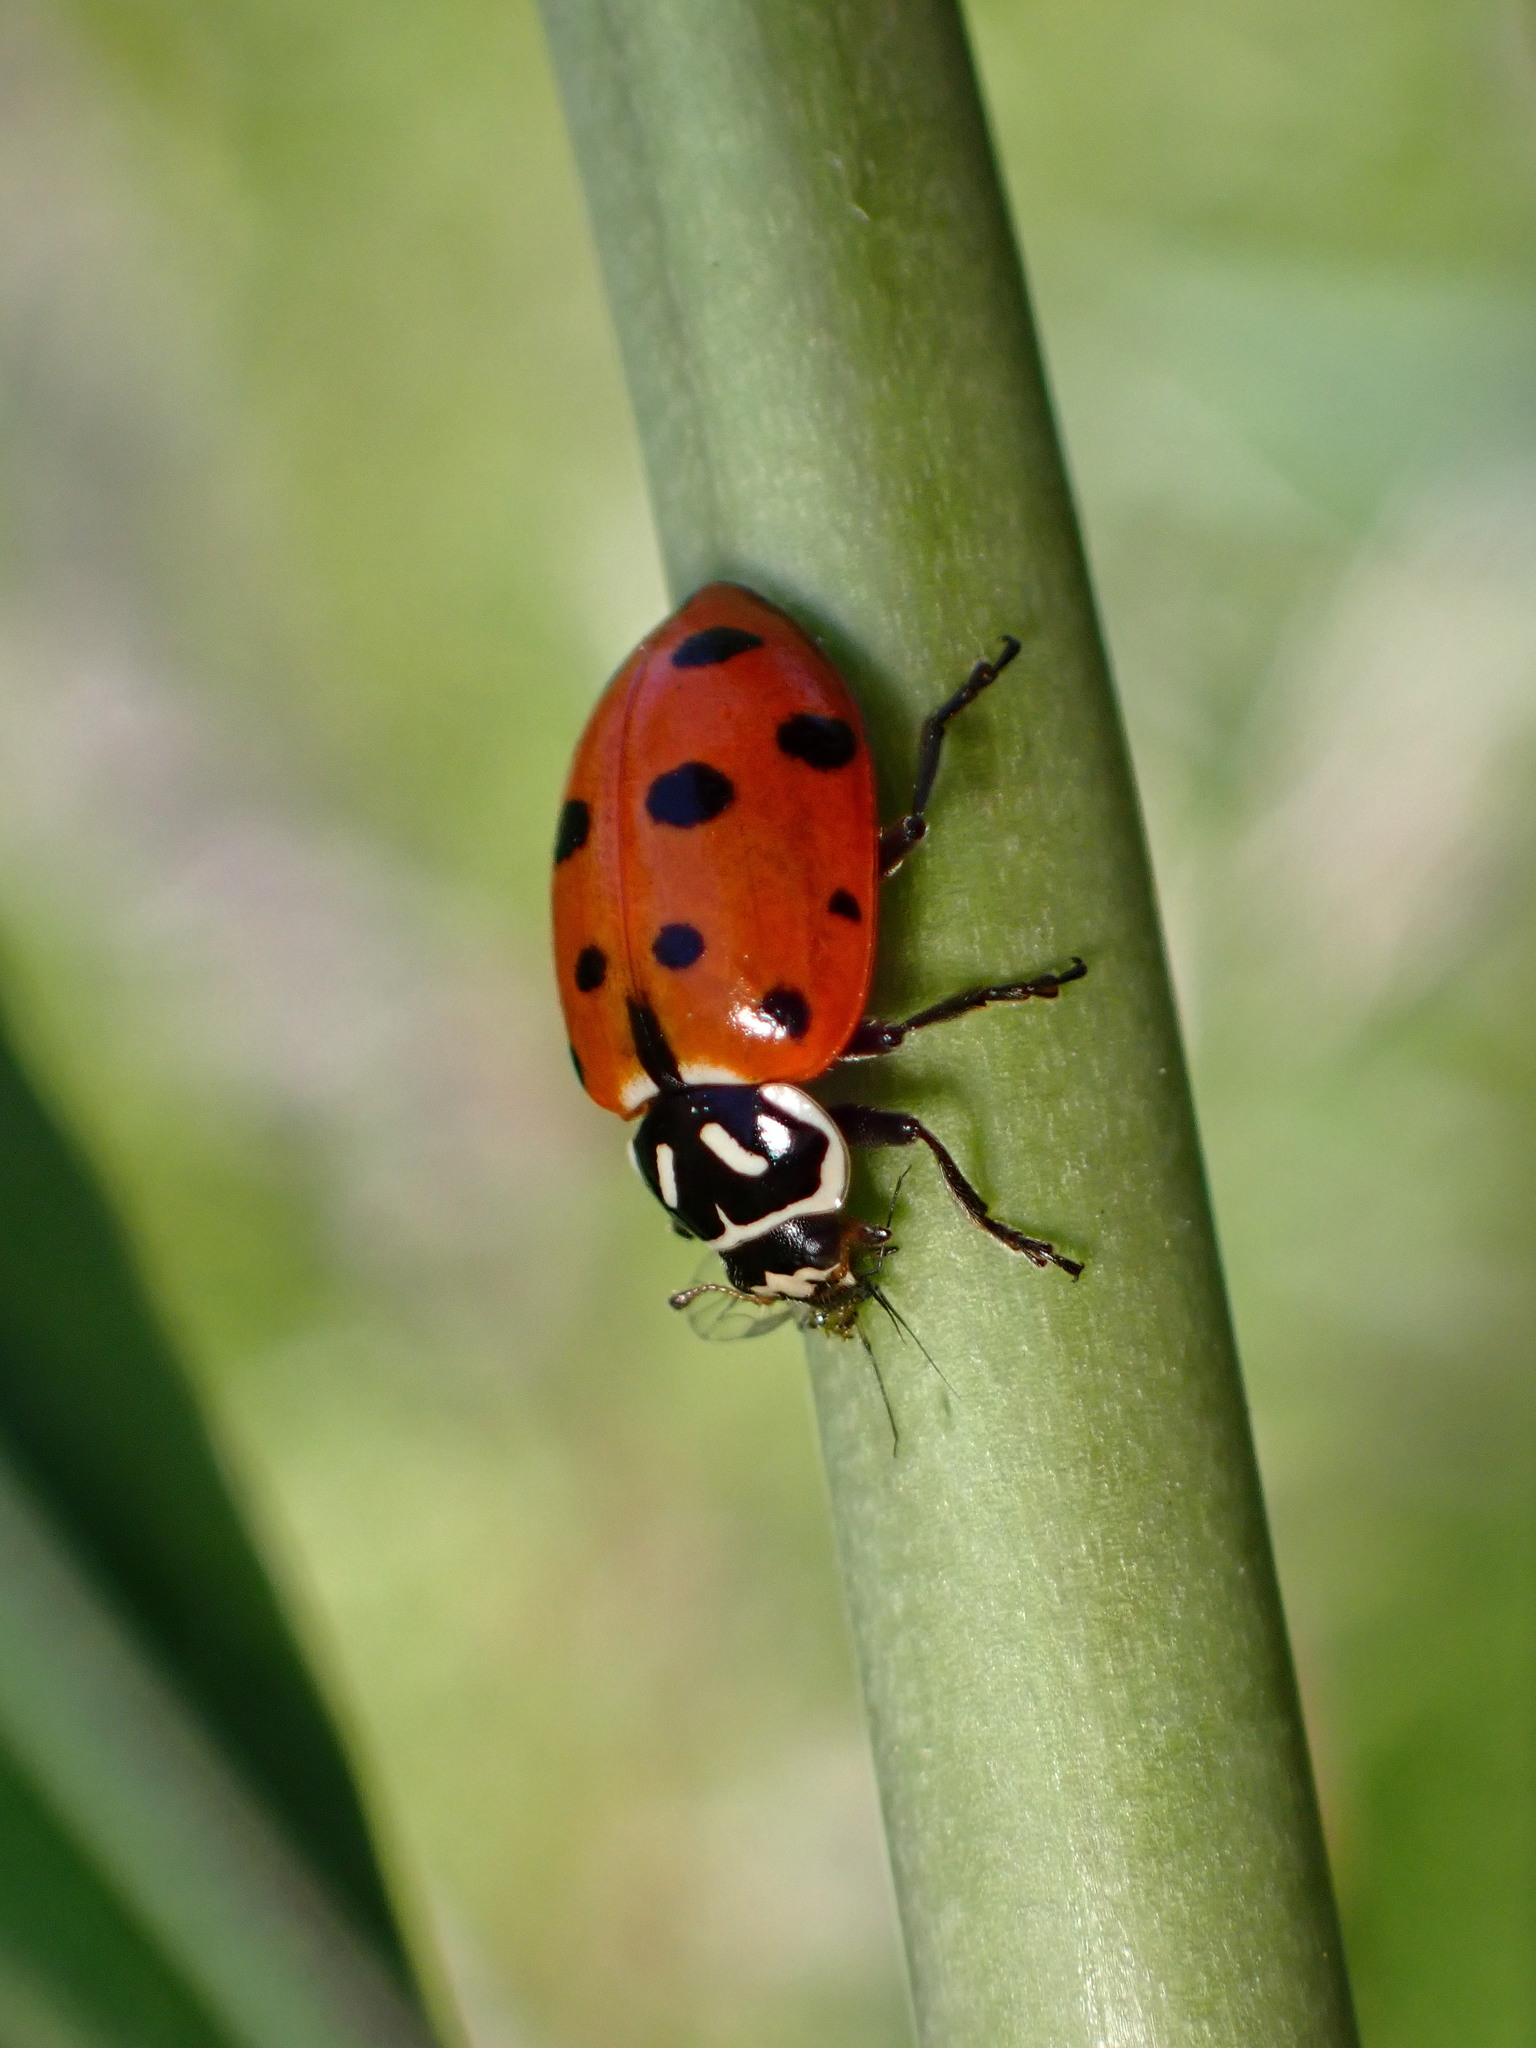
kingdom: Animalia
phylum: Arthropoda
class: Insecta
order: Coleoptera
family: Coccinellidae
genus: Hippodamia
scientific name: Hippodamia convergens
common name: Convergent lady beetle
